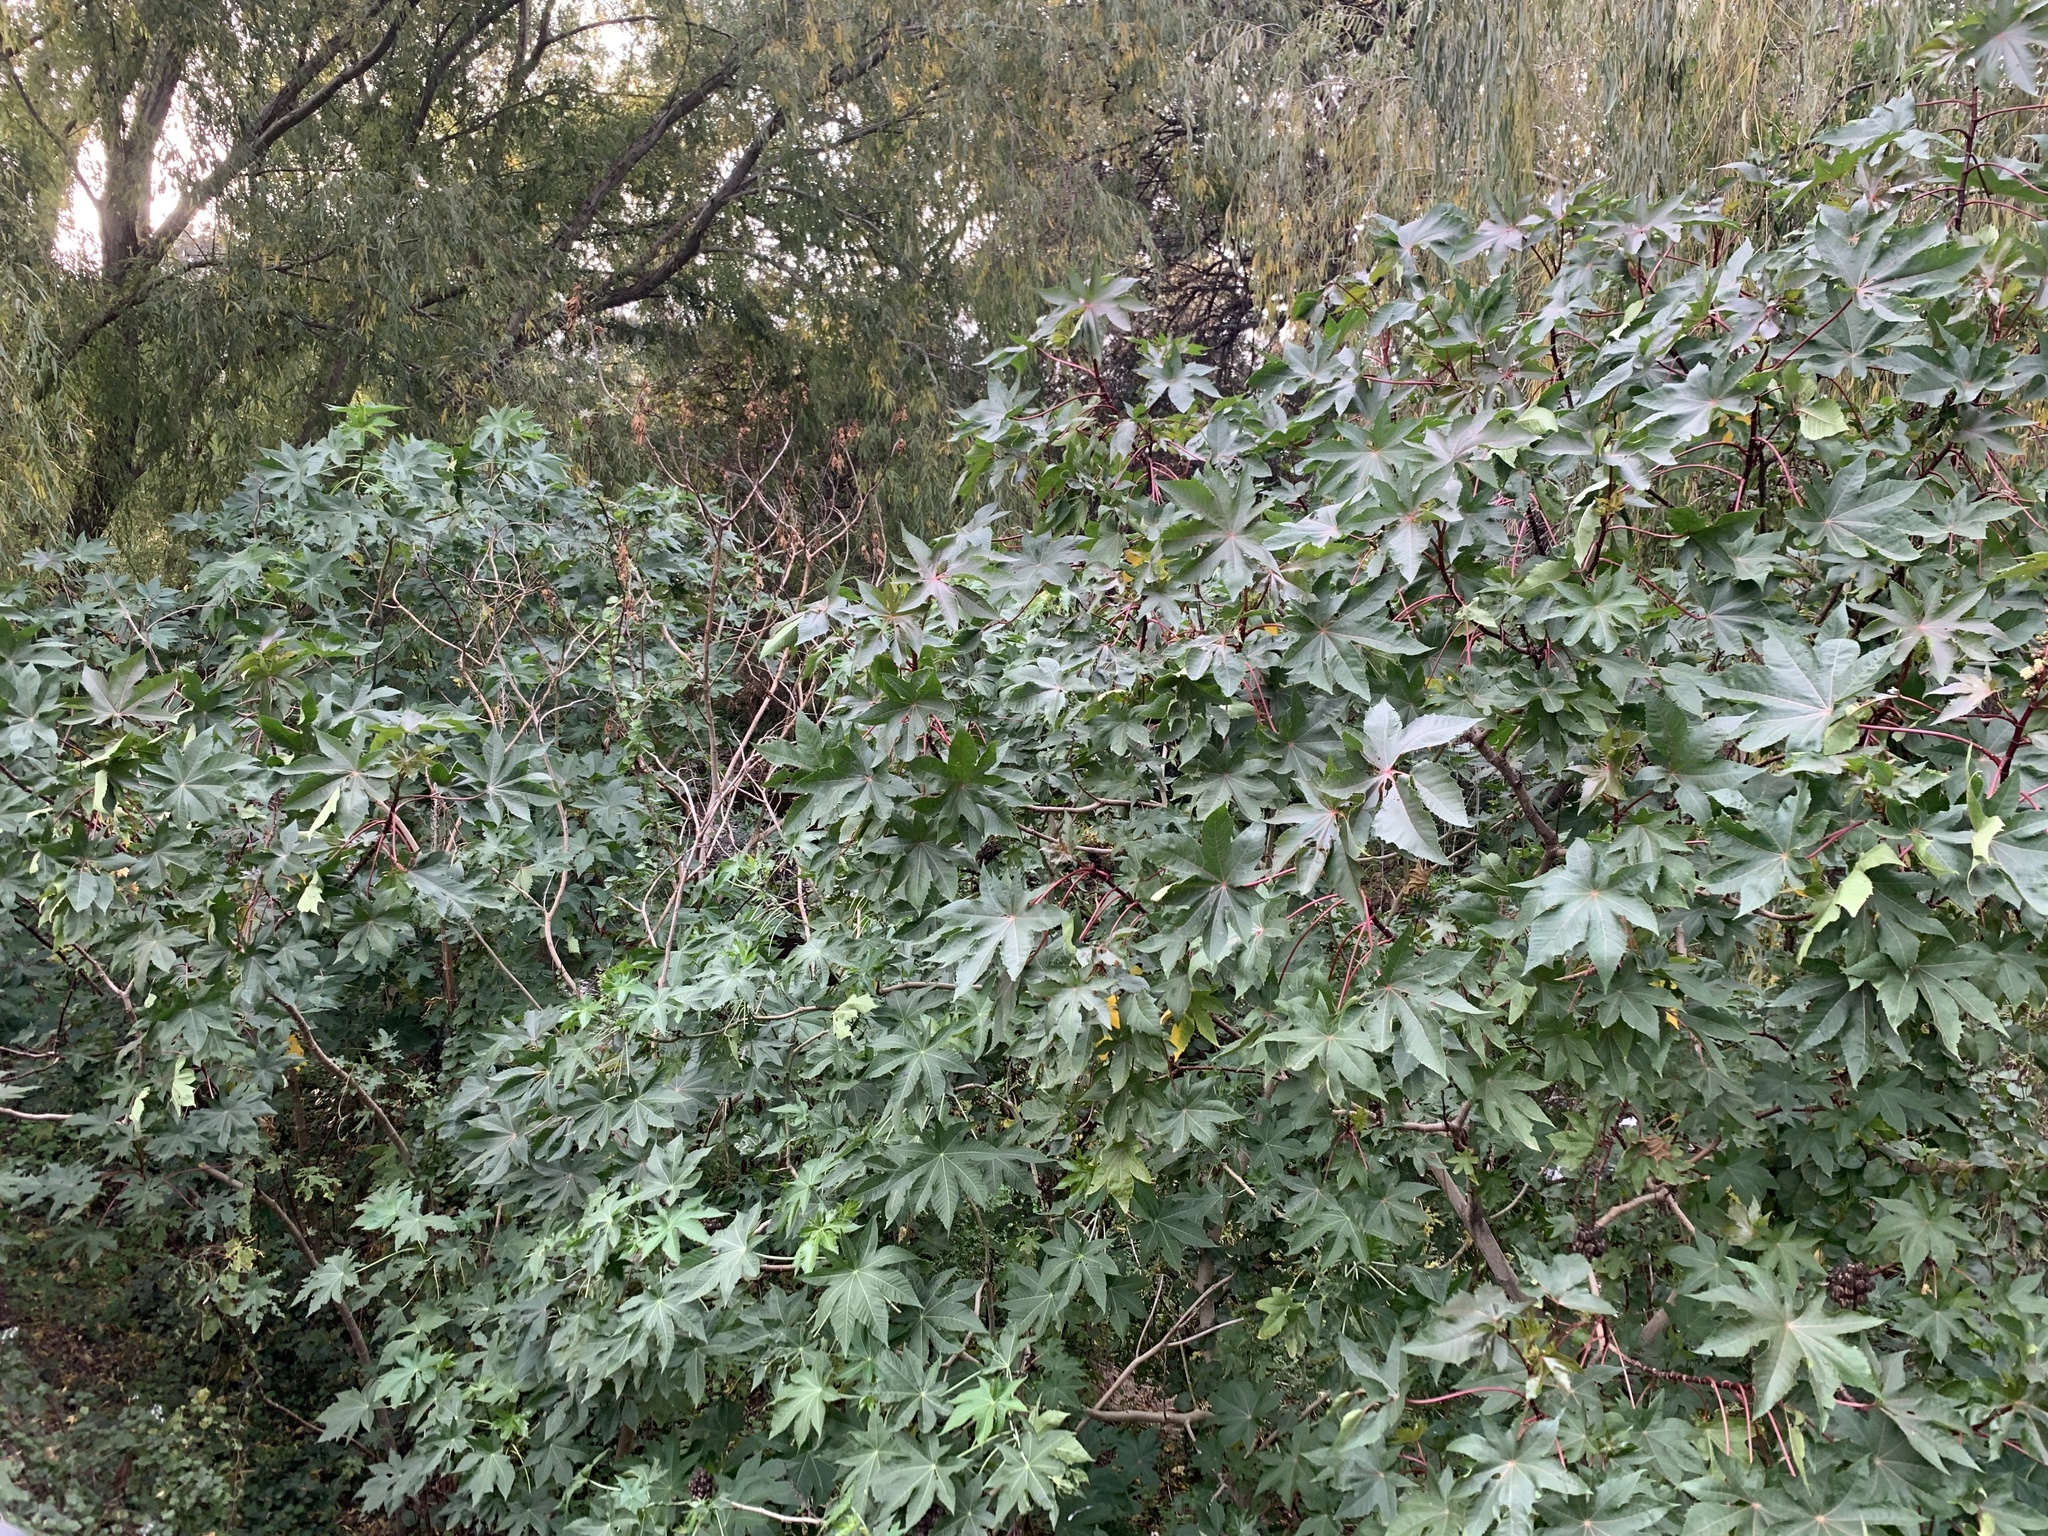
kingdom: Plantae
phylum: Tracheophyta
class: Magnoliopsida
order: Malpighiales
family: Euphorbiaceae
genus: Ricinus
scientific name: Ricinus communis
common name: Castor-oil-plant
